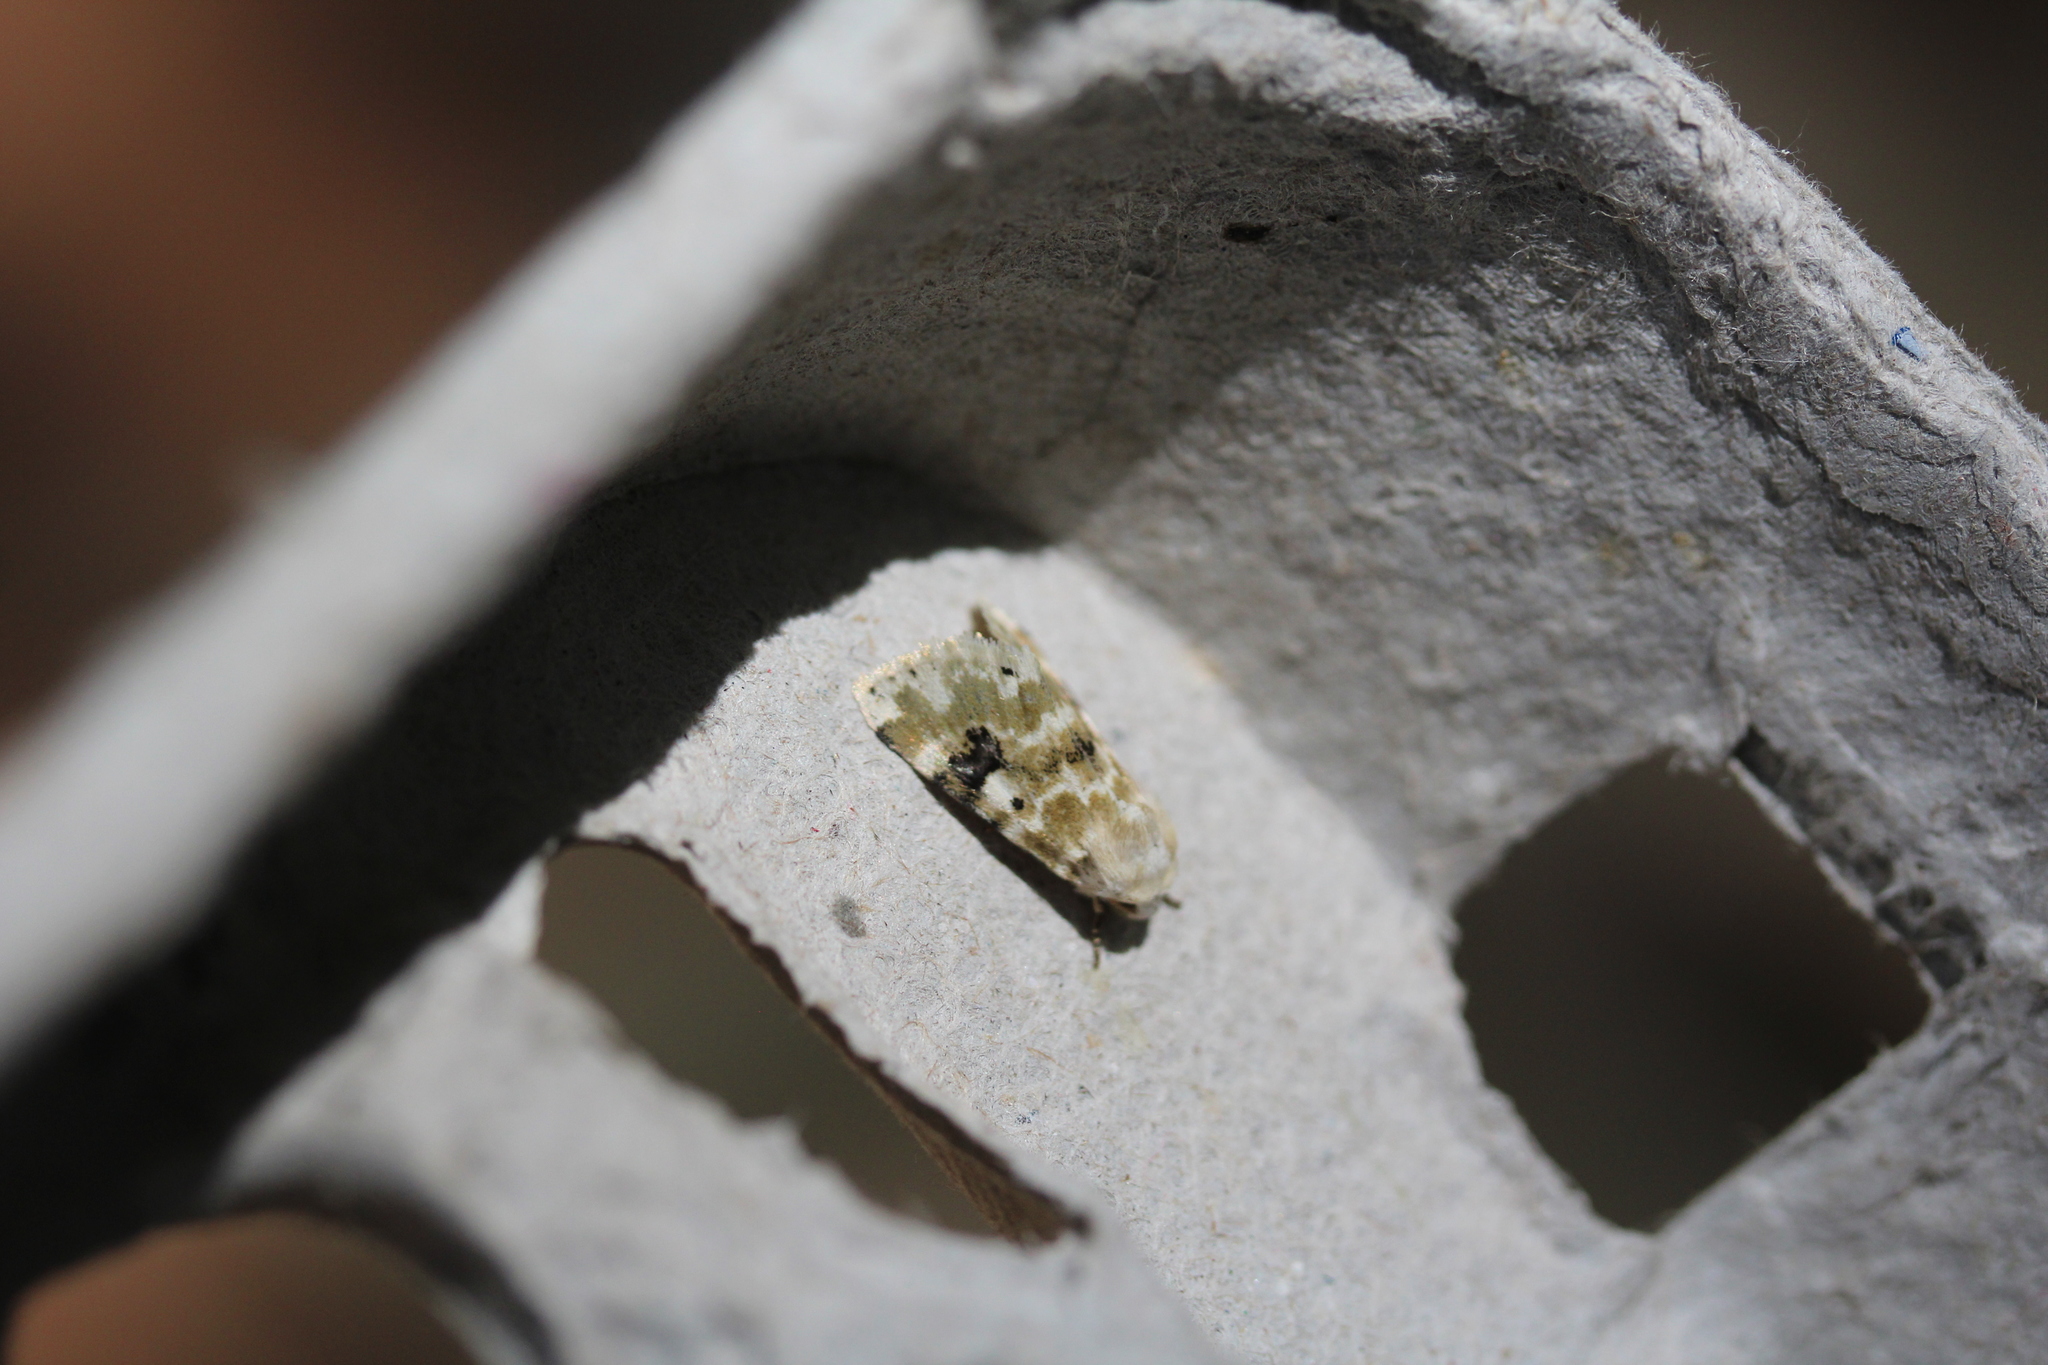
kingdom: Animalia
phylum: Arthropoda
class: Insecta
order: Lepidoptera
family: Noctuidae
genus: Schinia
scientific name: Schinia nundina
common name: Goldenrod flower moth
